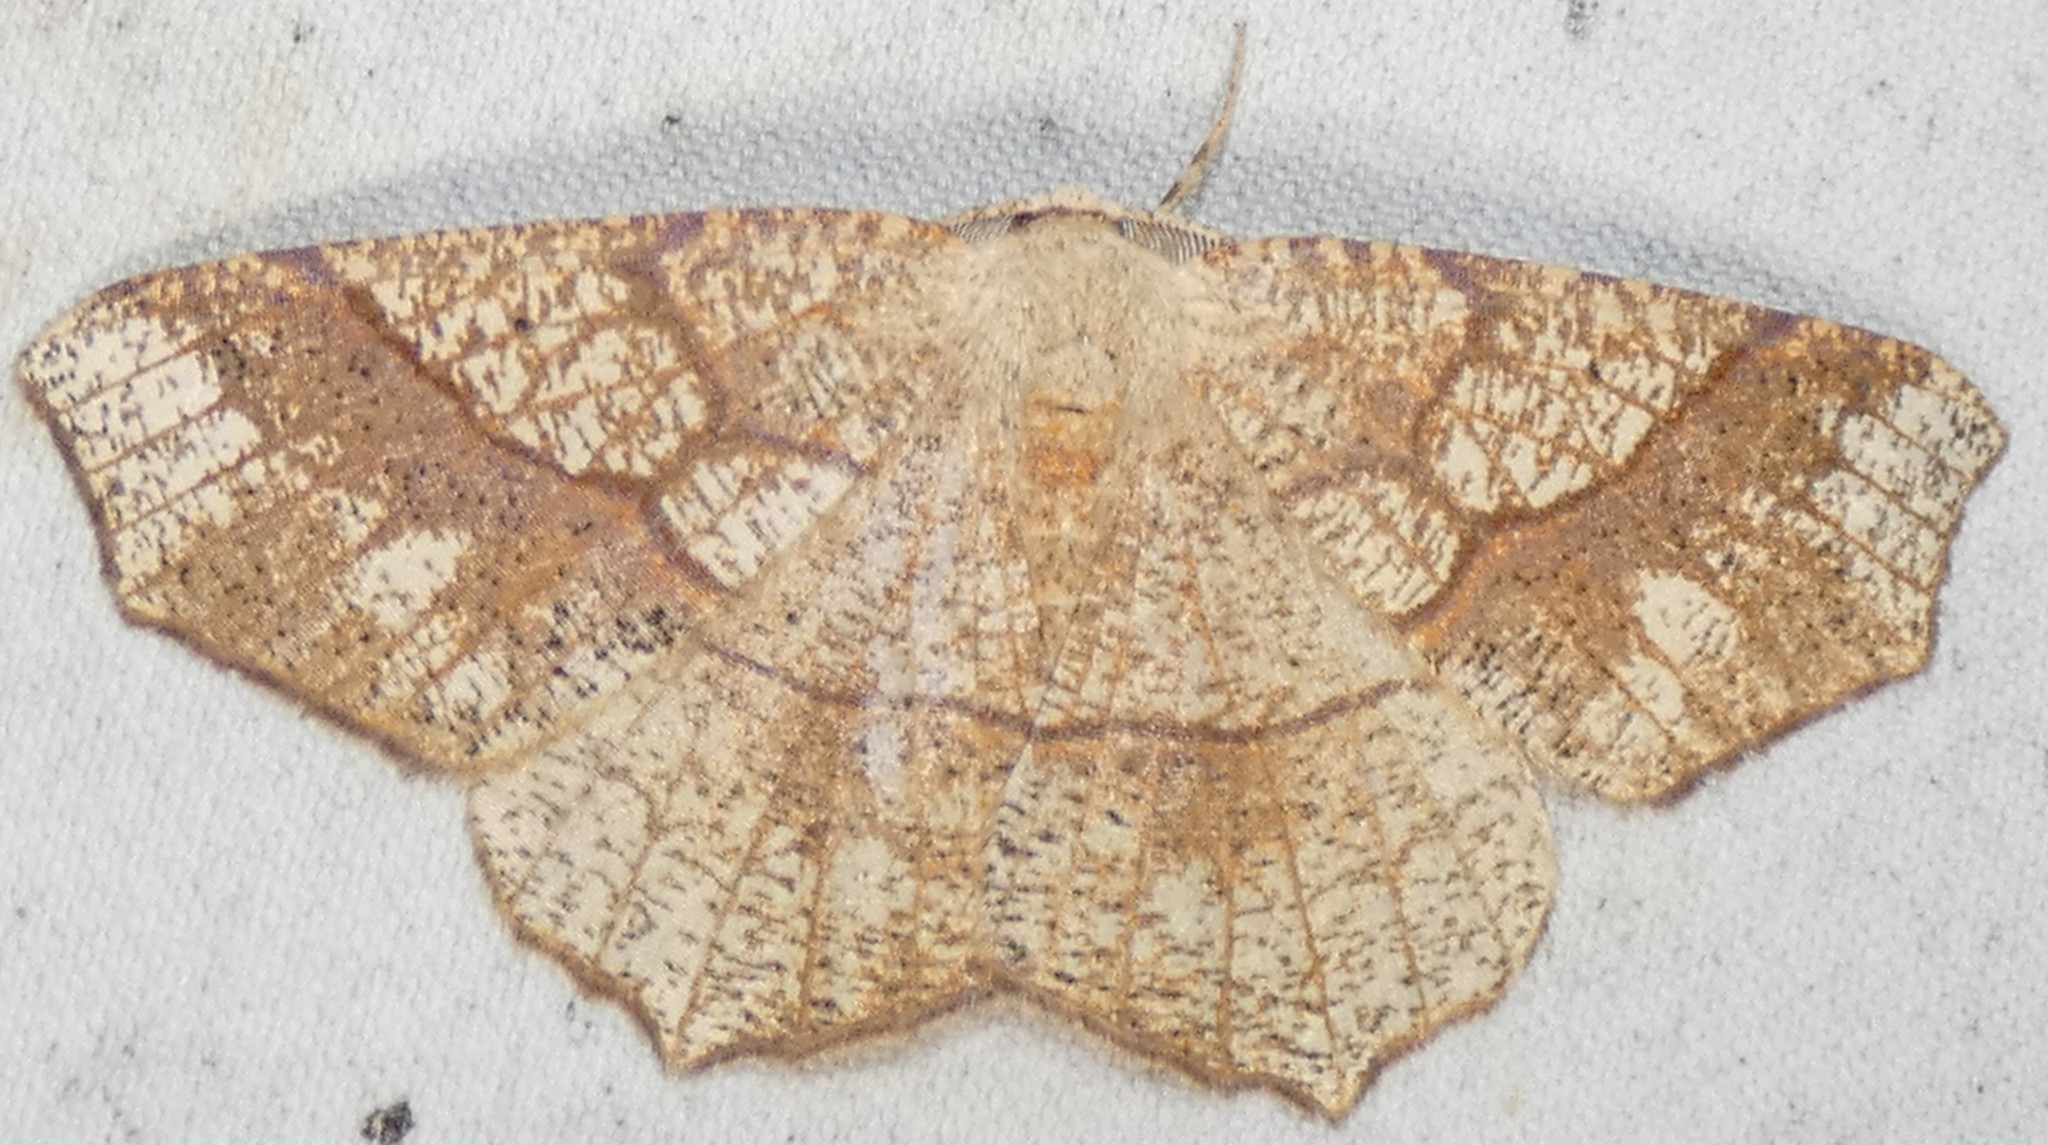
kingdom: Animalia
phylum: Arthropoda
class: Insecta
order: Lepidoptera
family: Geometridae
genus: Besma
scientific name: Besma quercivoraria
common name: Oak besma
